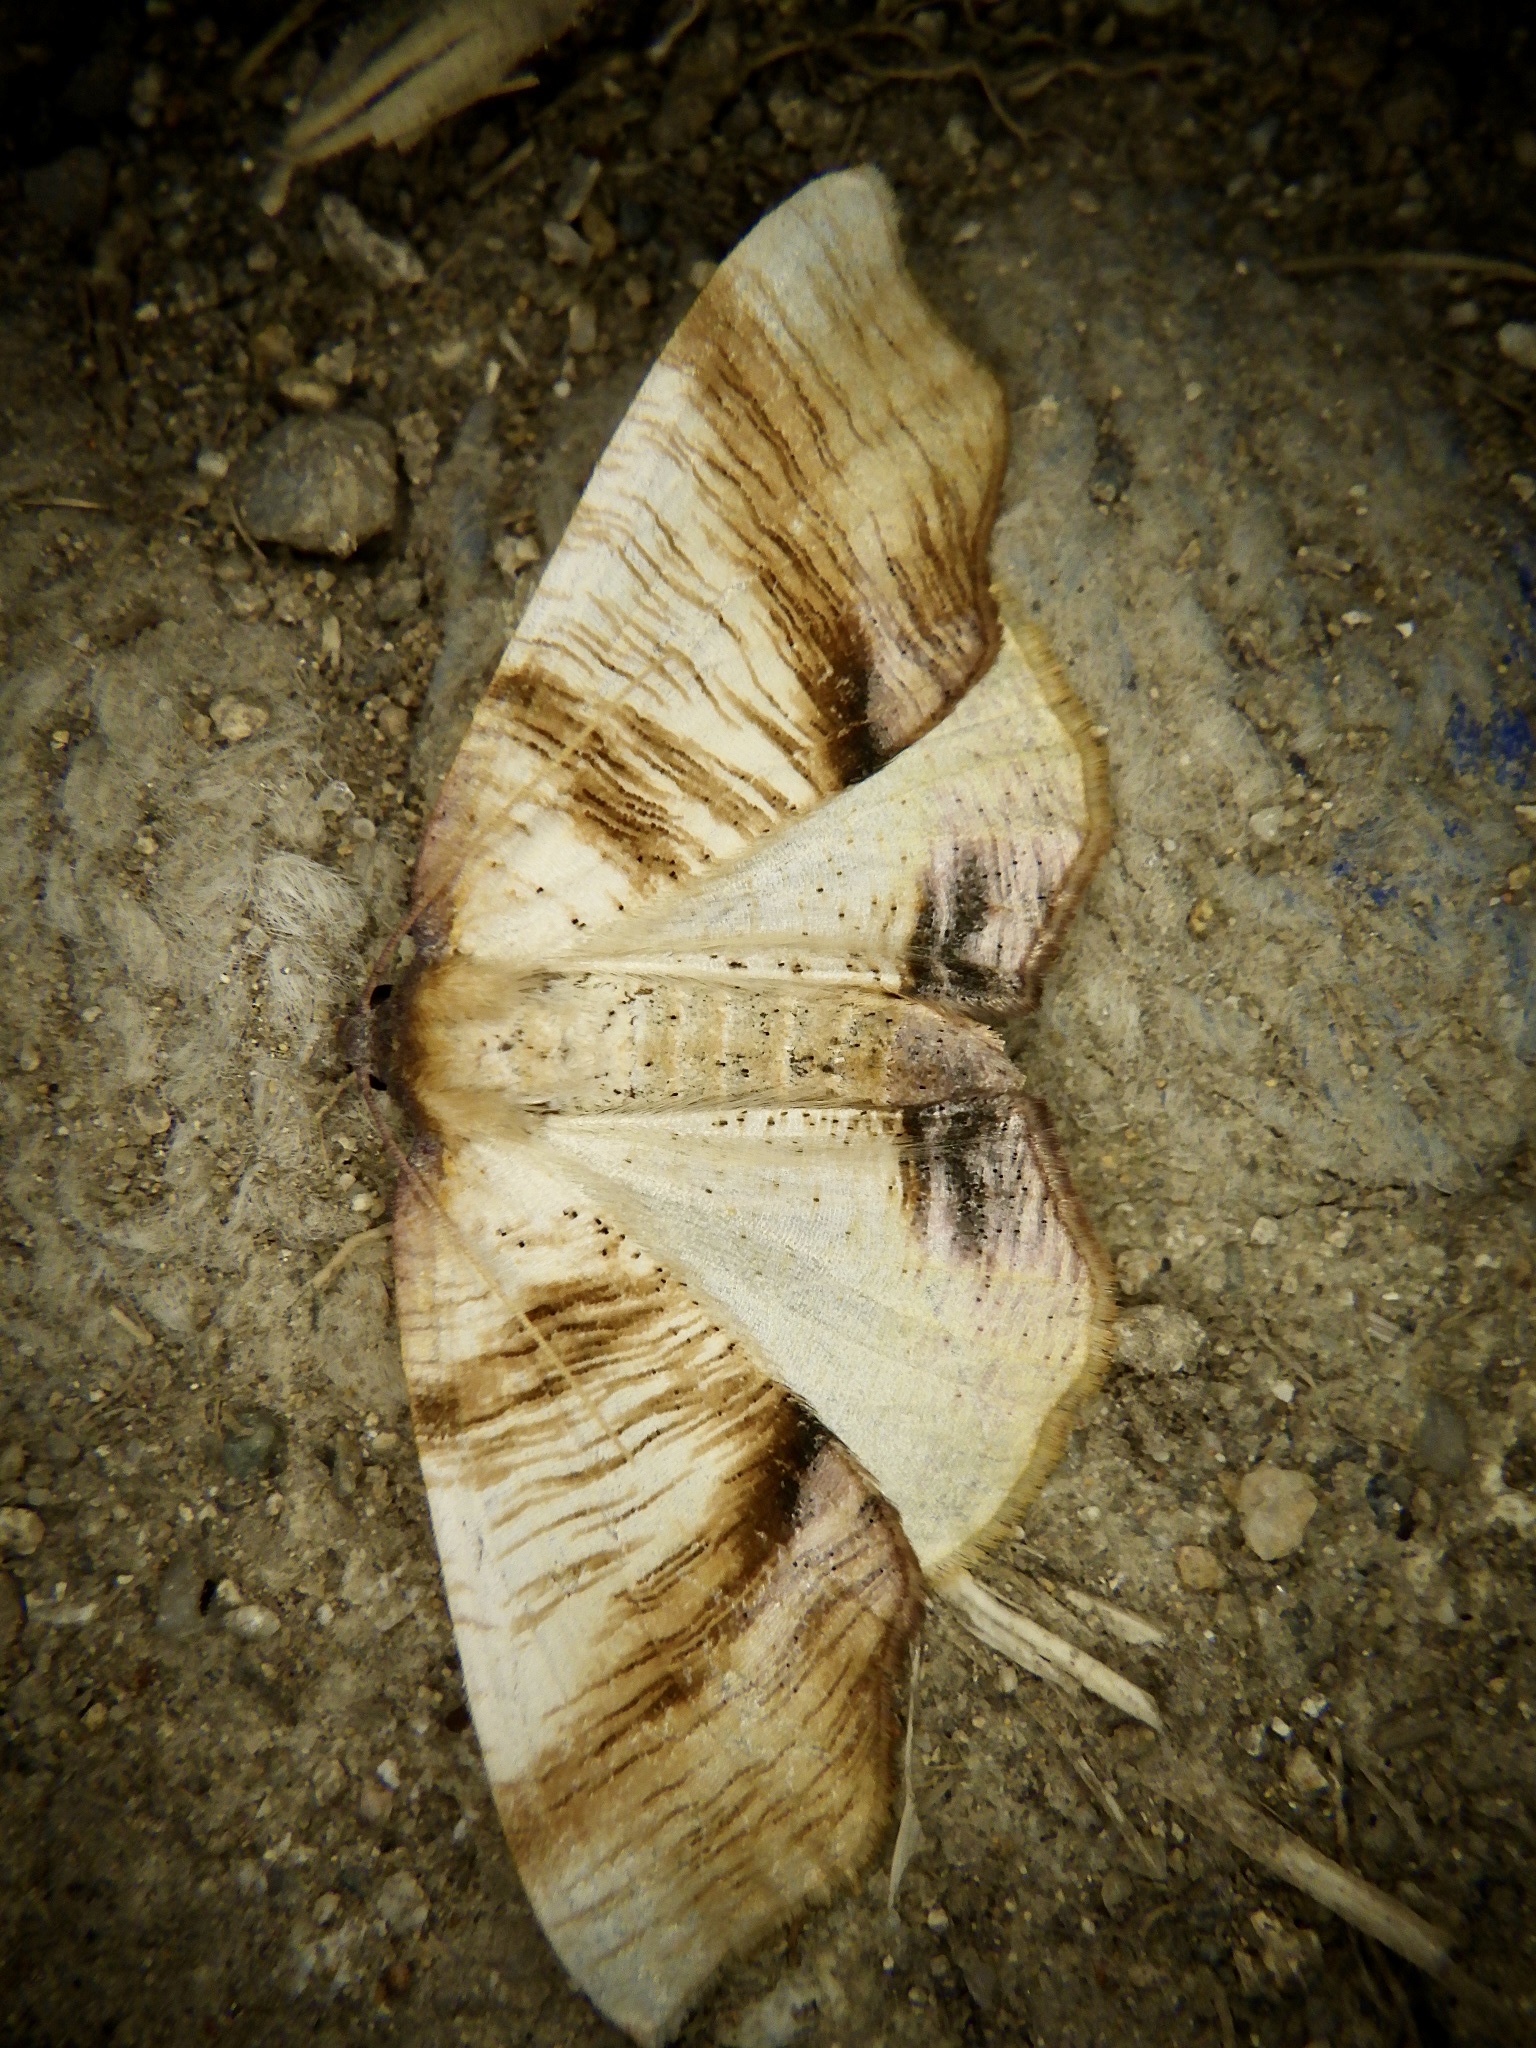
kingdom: Animalia
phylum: Arthropoda
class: Insecta
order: Lepidoptera
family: Geometridae
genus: Plagodis
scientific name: Plagodis dolabraria
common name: Scorched wing
